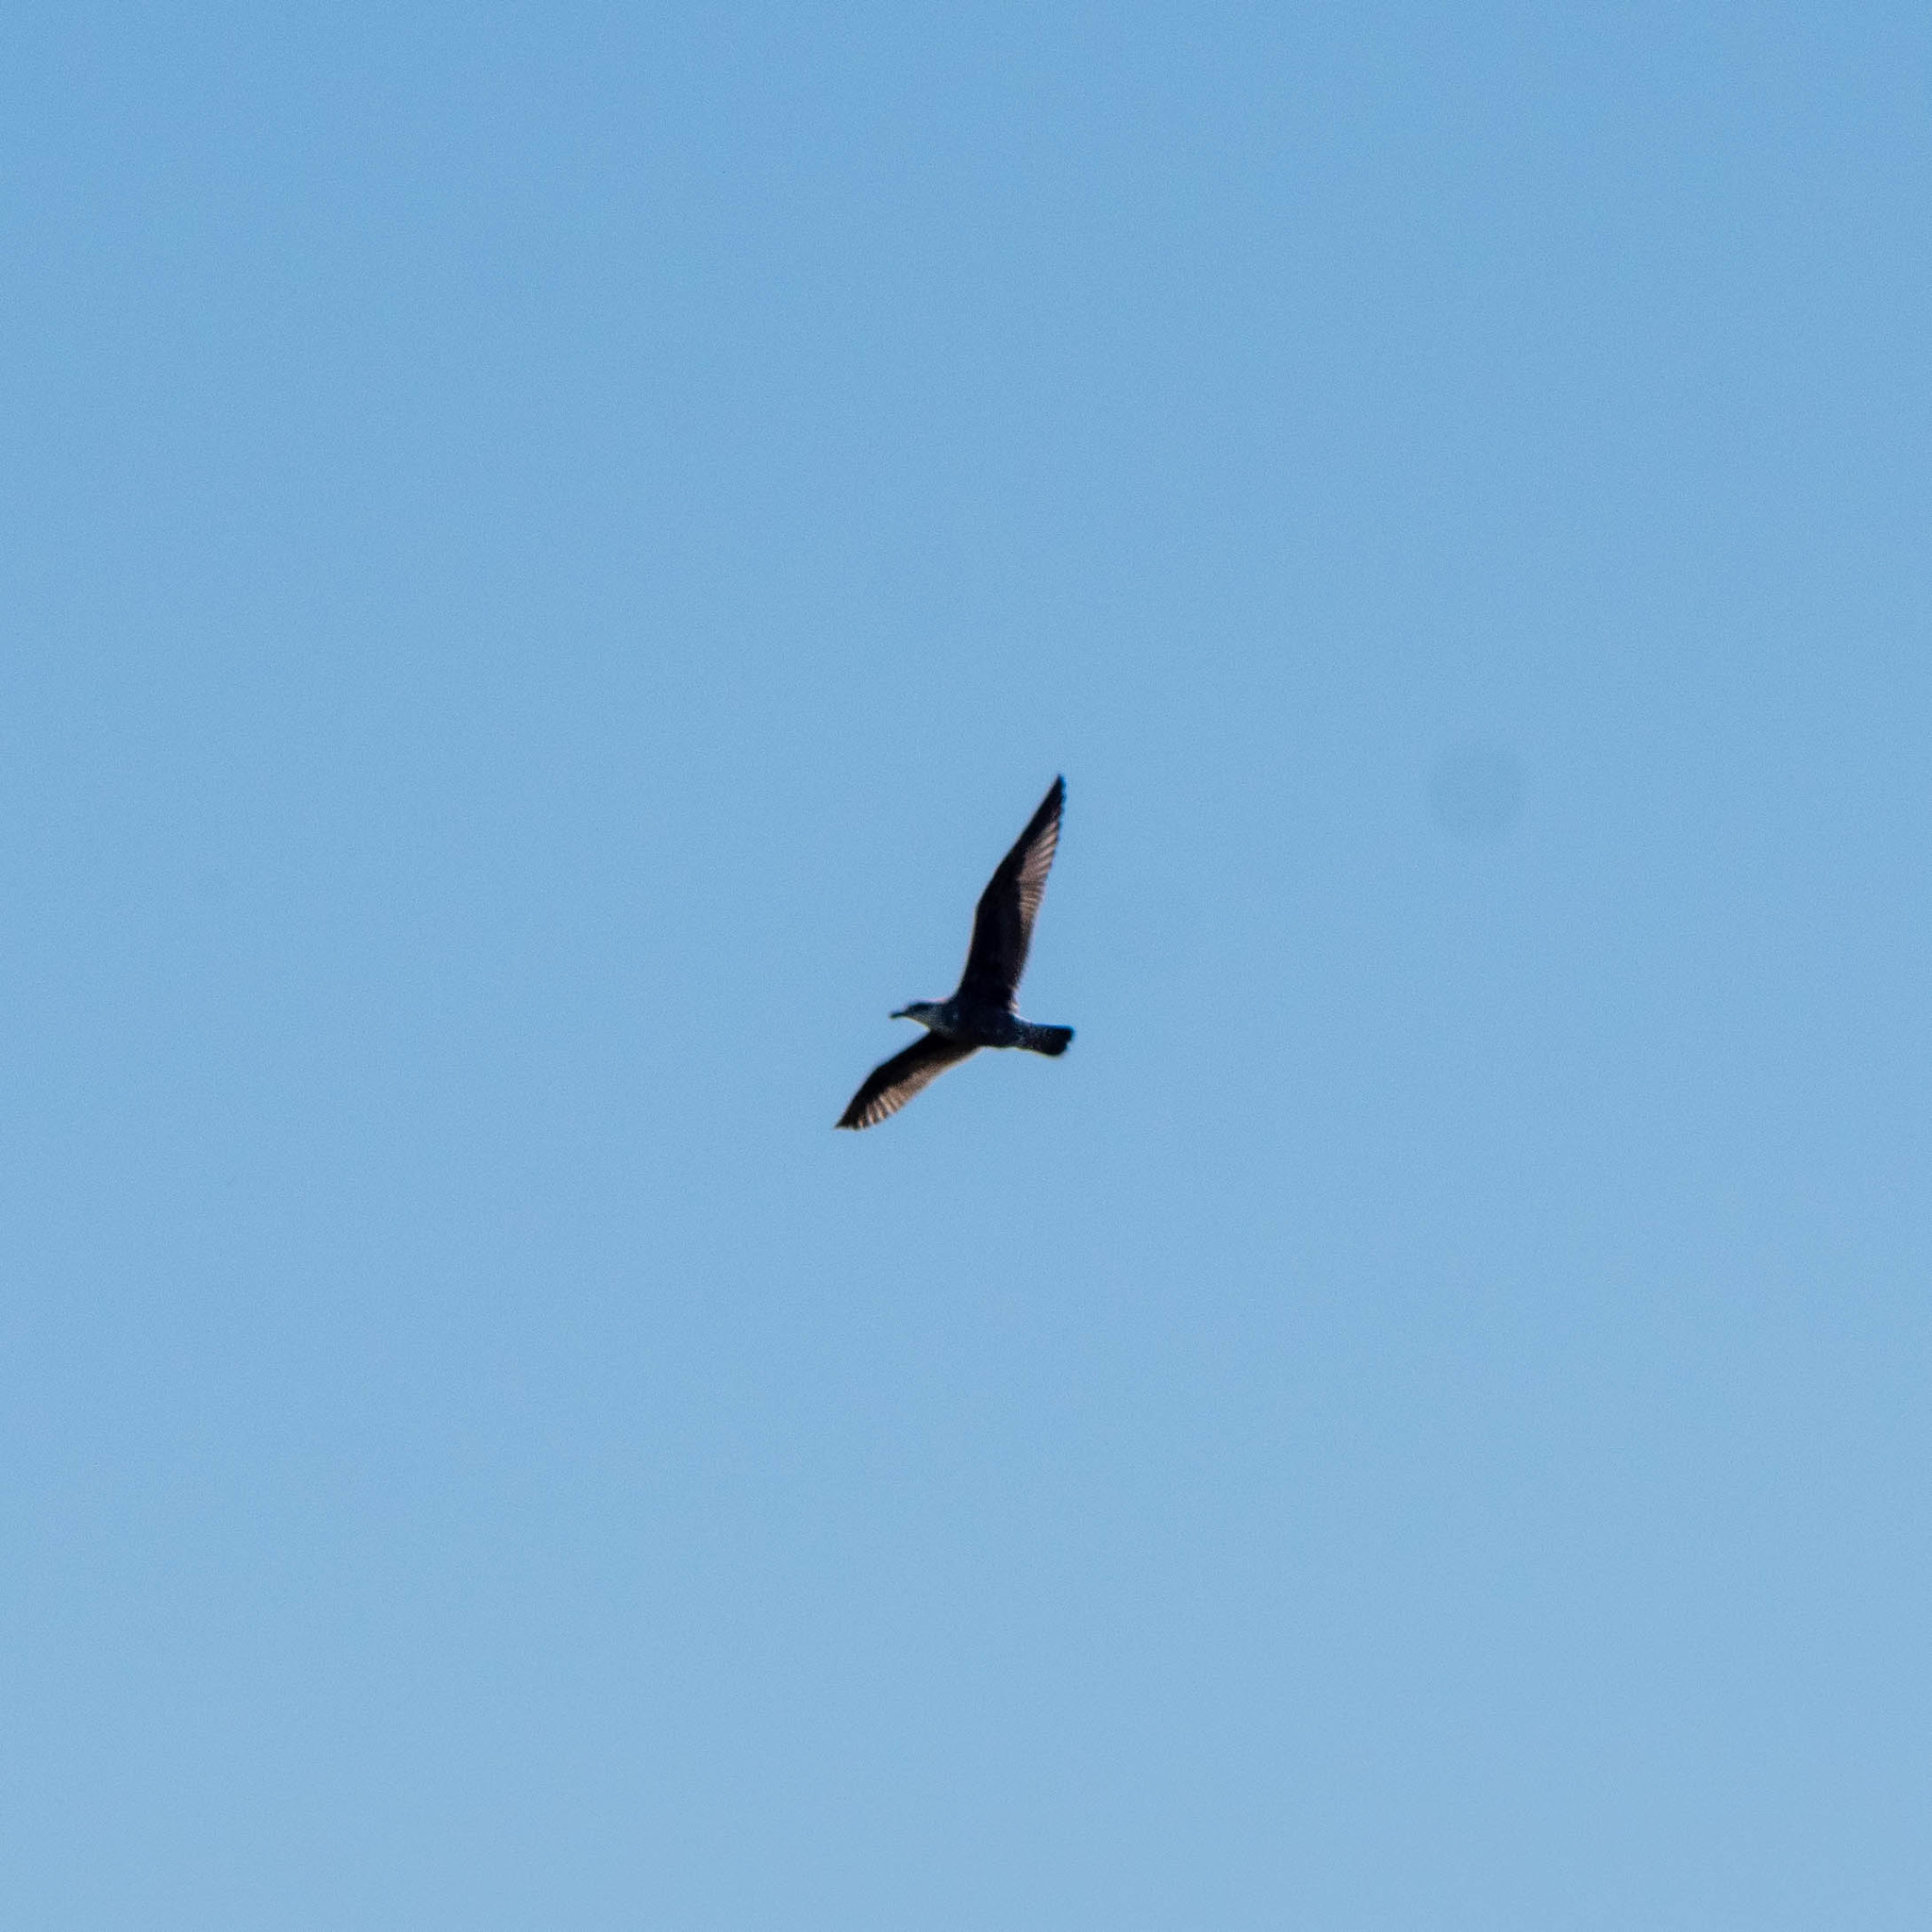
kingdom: Animalia
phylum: Chordata
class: Aves
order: Charadriiformes
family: Laridae
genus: Larus
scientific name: Larus dominicanus
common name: Kelp gull
